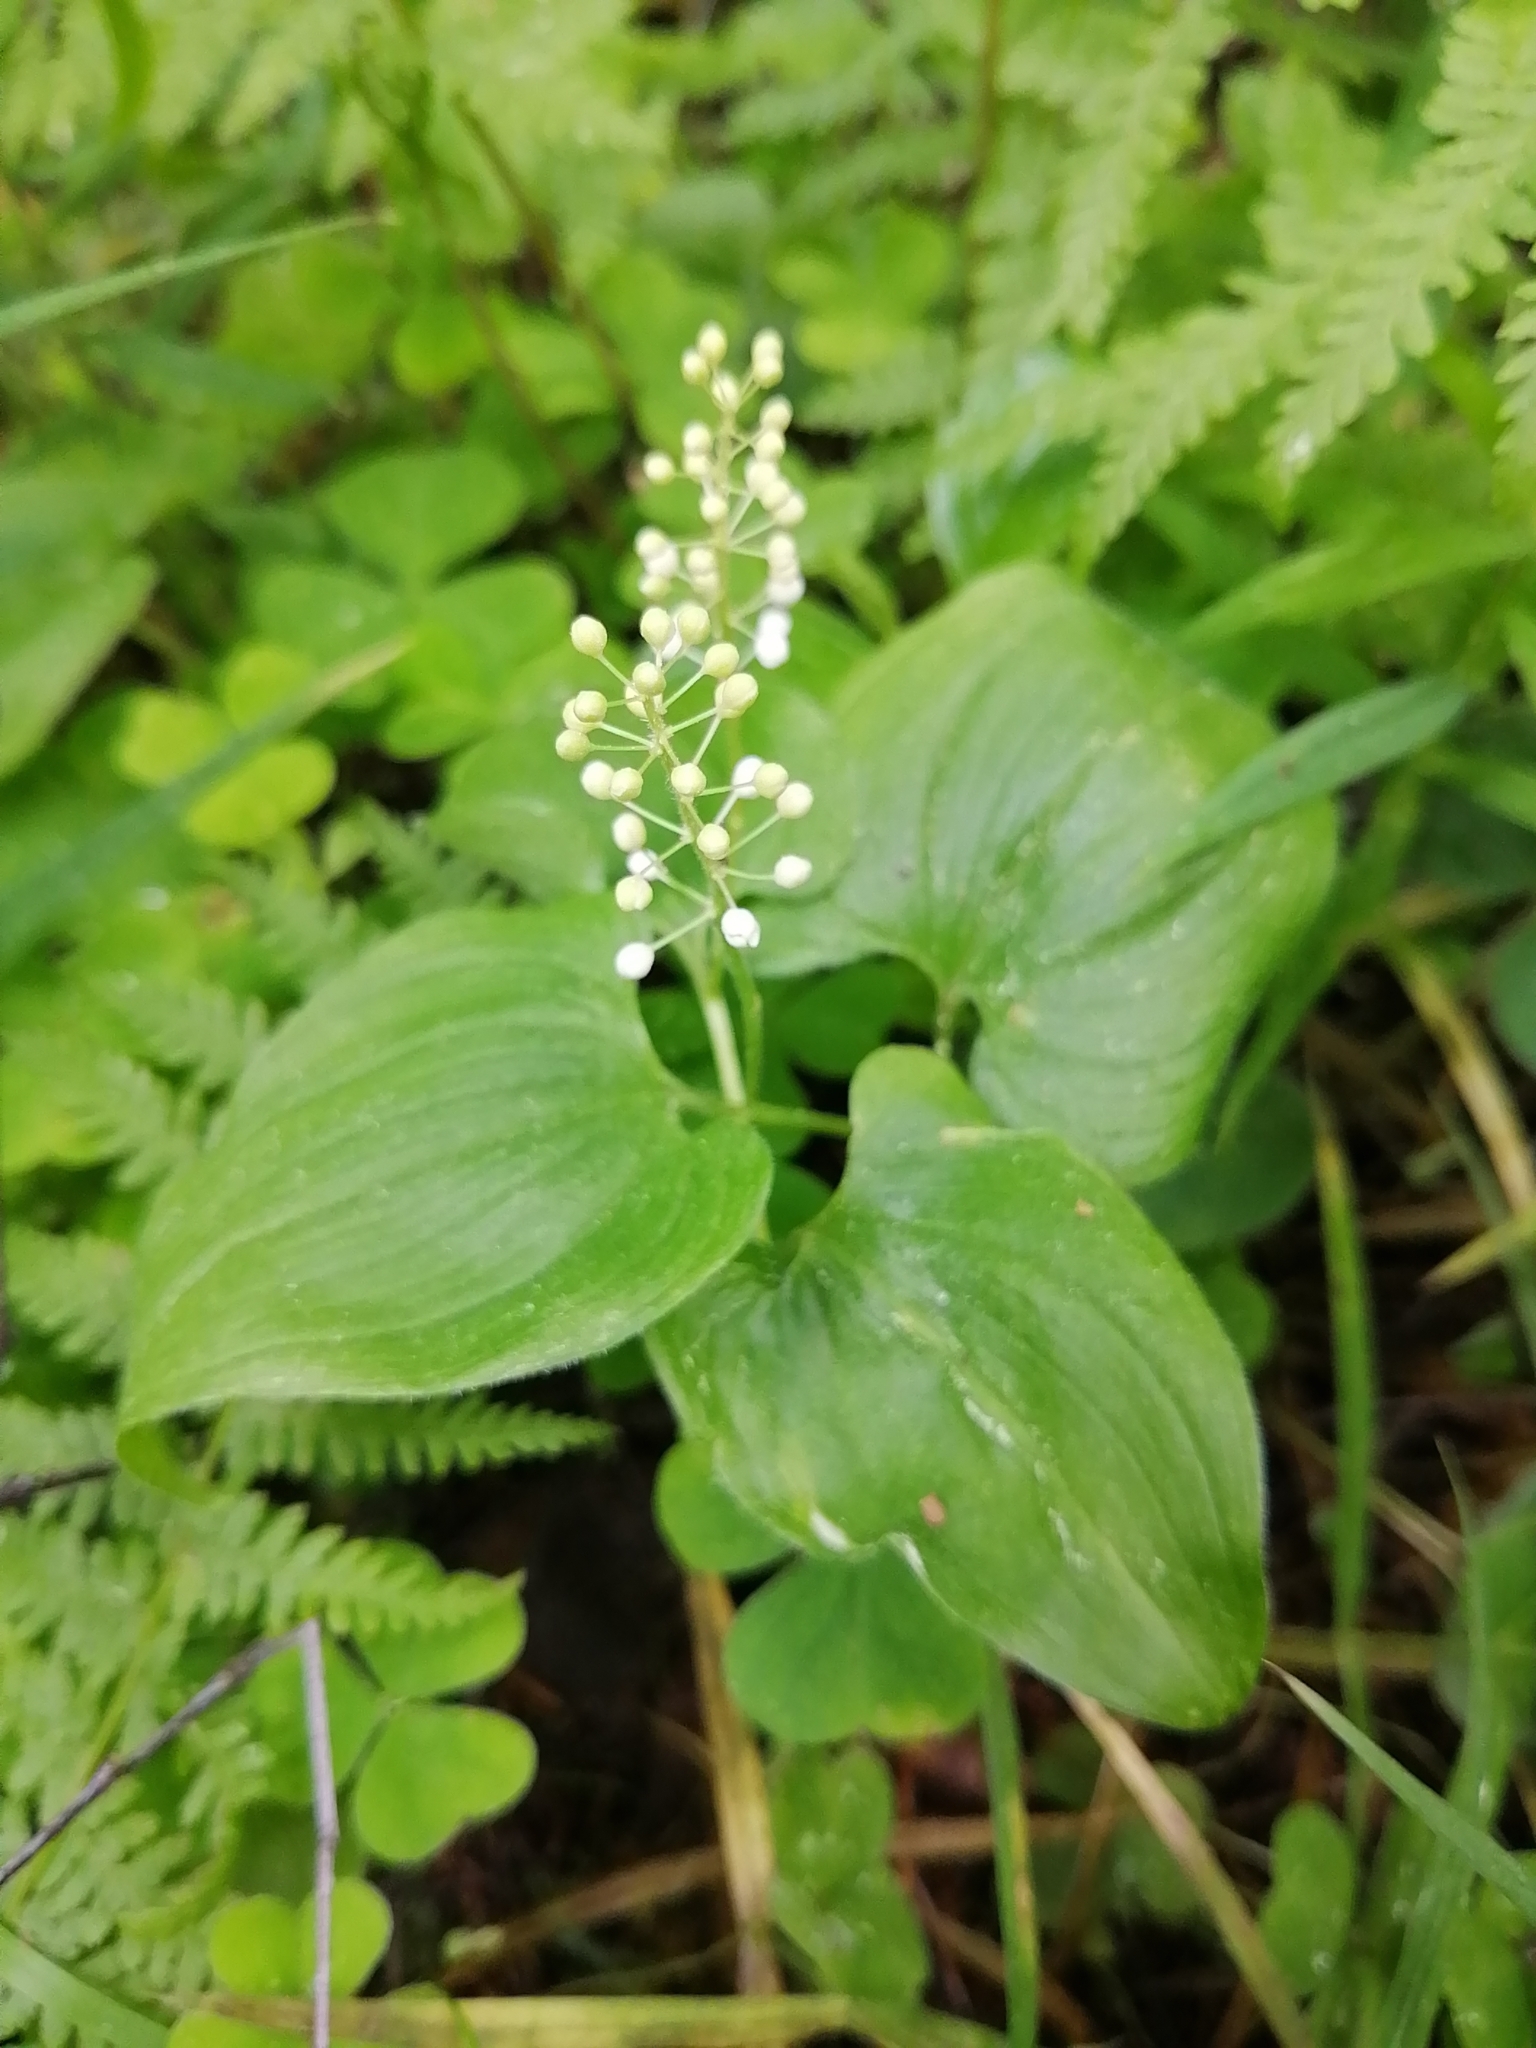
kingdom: Plantae
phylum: Tracheophyta
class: Liliopsida
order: Asparagales
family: Asparagaceae
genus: Maianthemum
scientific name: Maianthemum bifolium
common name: May lily
